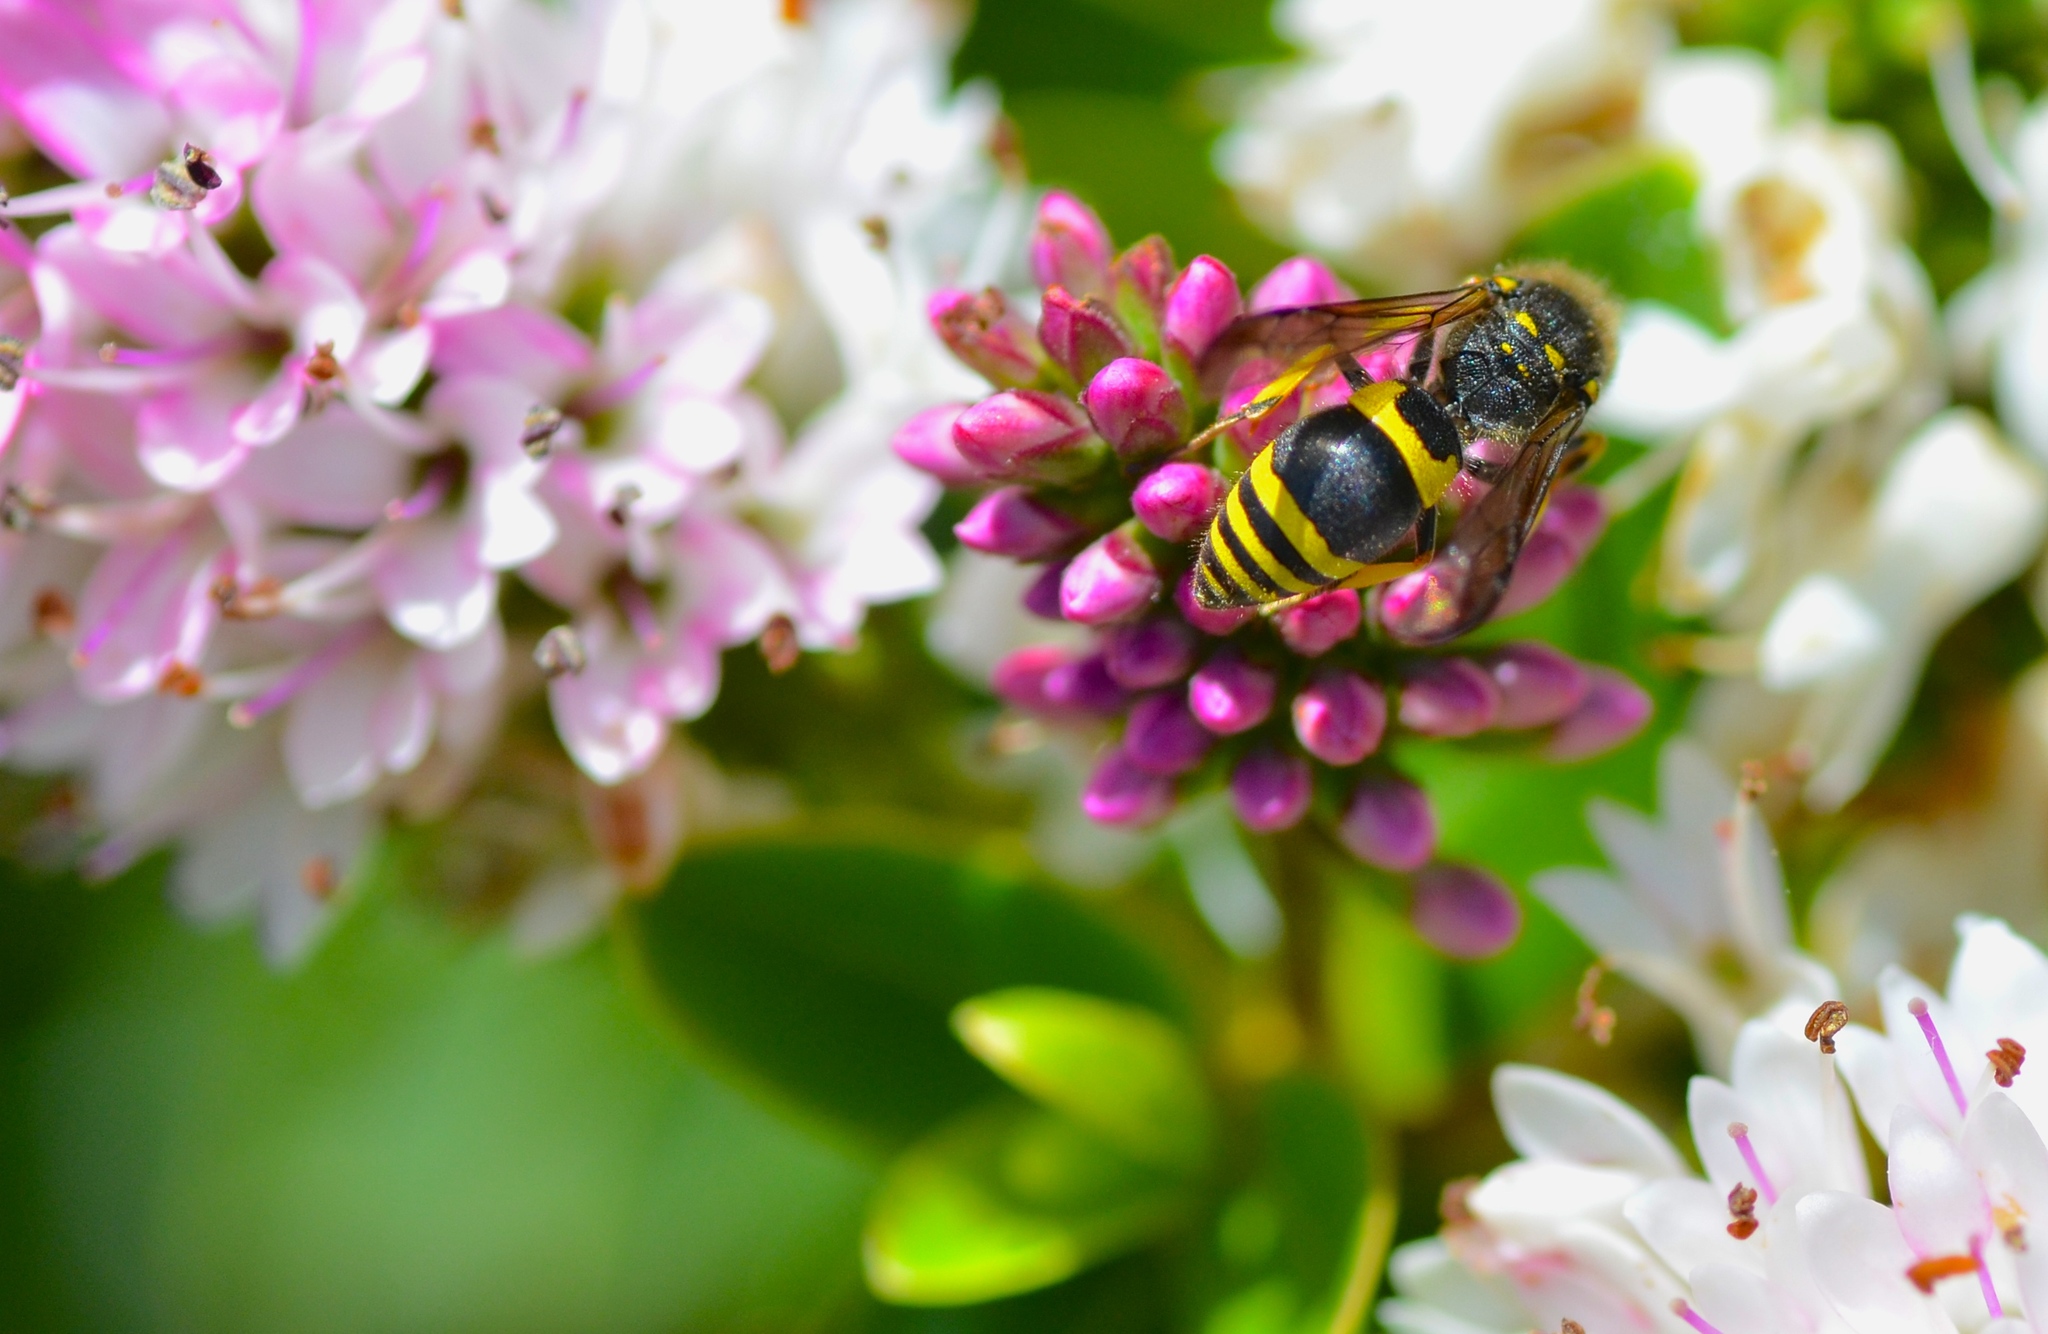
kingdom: Animalia
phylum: Arthropoda
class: Insecta
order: Hymenoptera
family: Vespidae
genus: Ancistrocerus
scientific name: Ancistrocerus gazella
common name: European tube wasp
